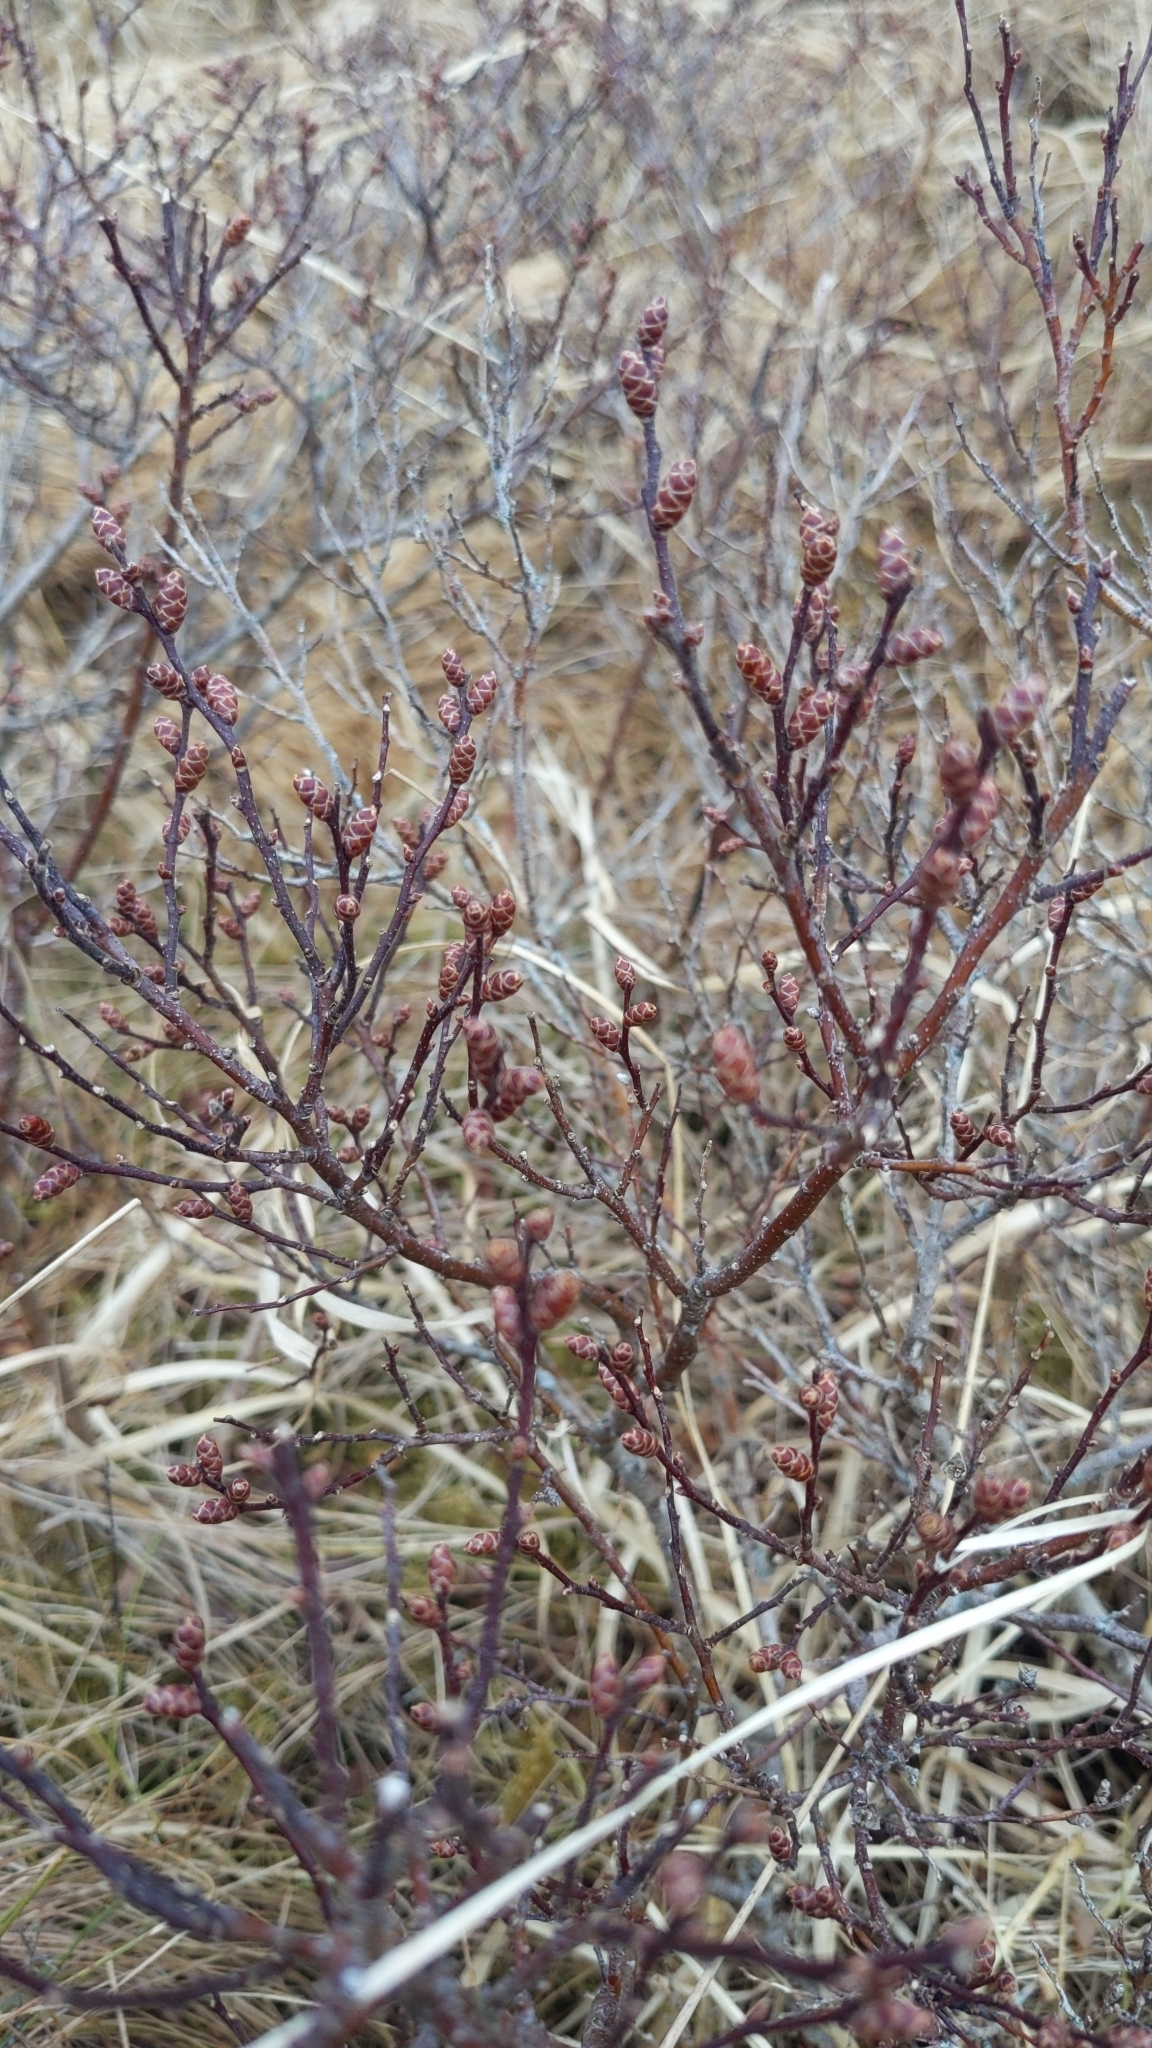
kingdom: Plantae
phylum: Tracheophyta
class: Magnoliopsida
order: Fagales
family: Myricaceae
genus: Myrica
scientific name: Myrica gale
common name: Sweet gale
